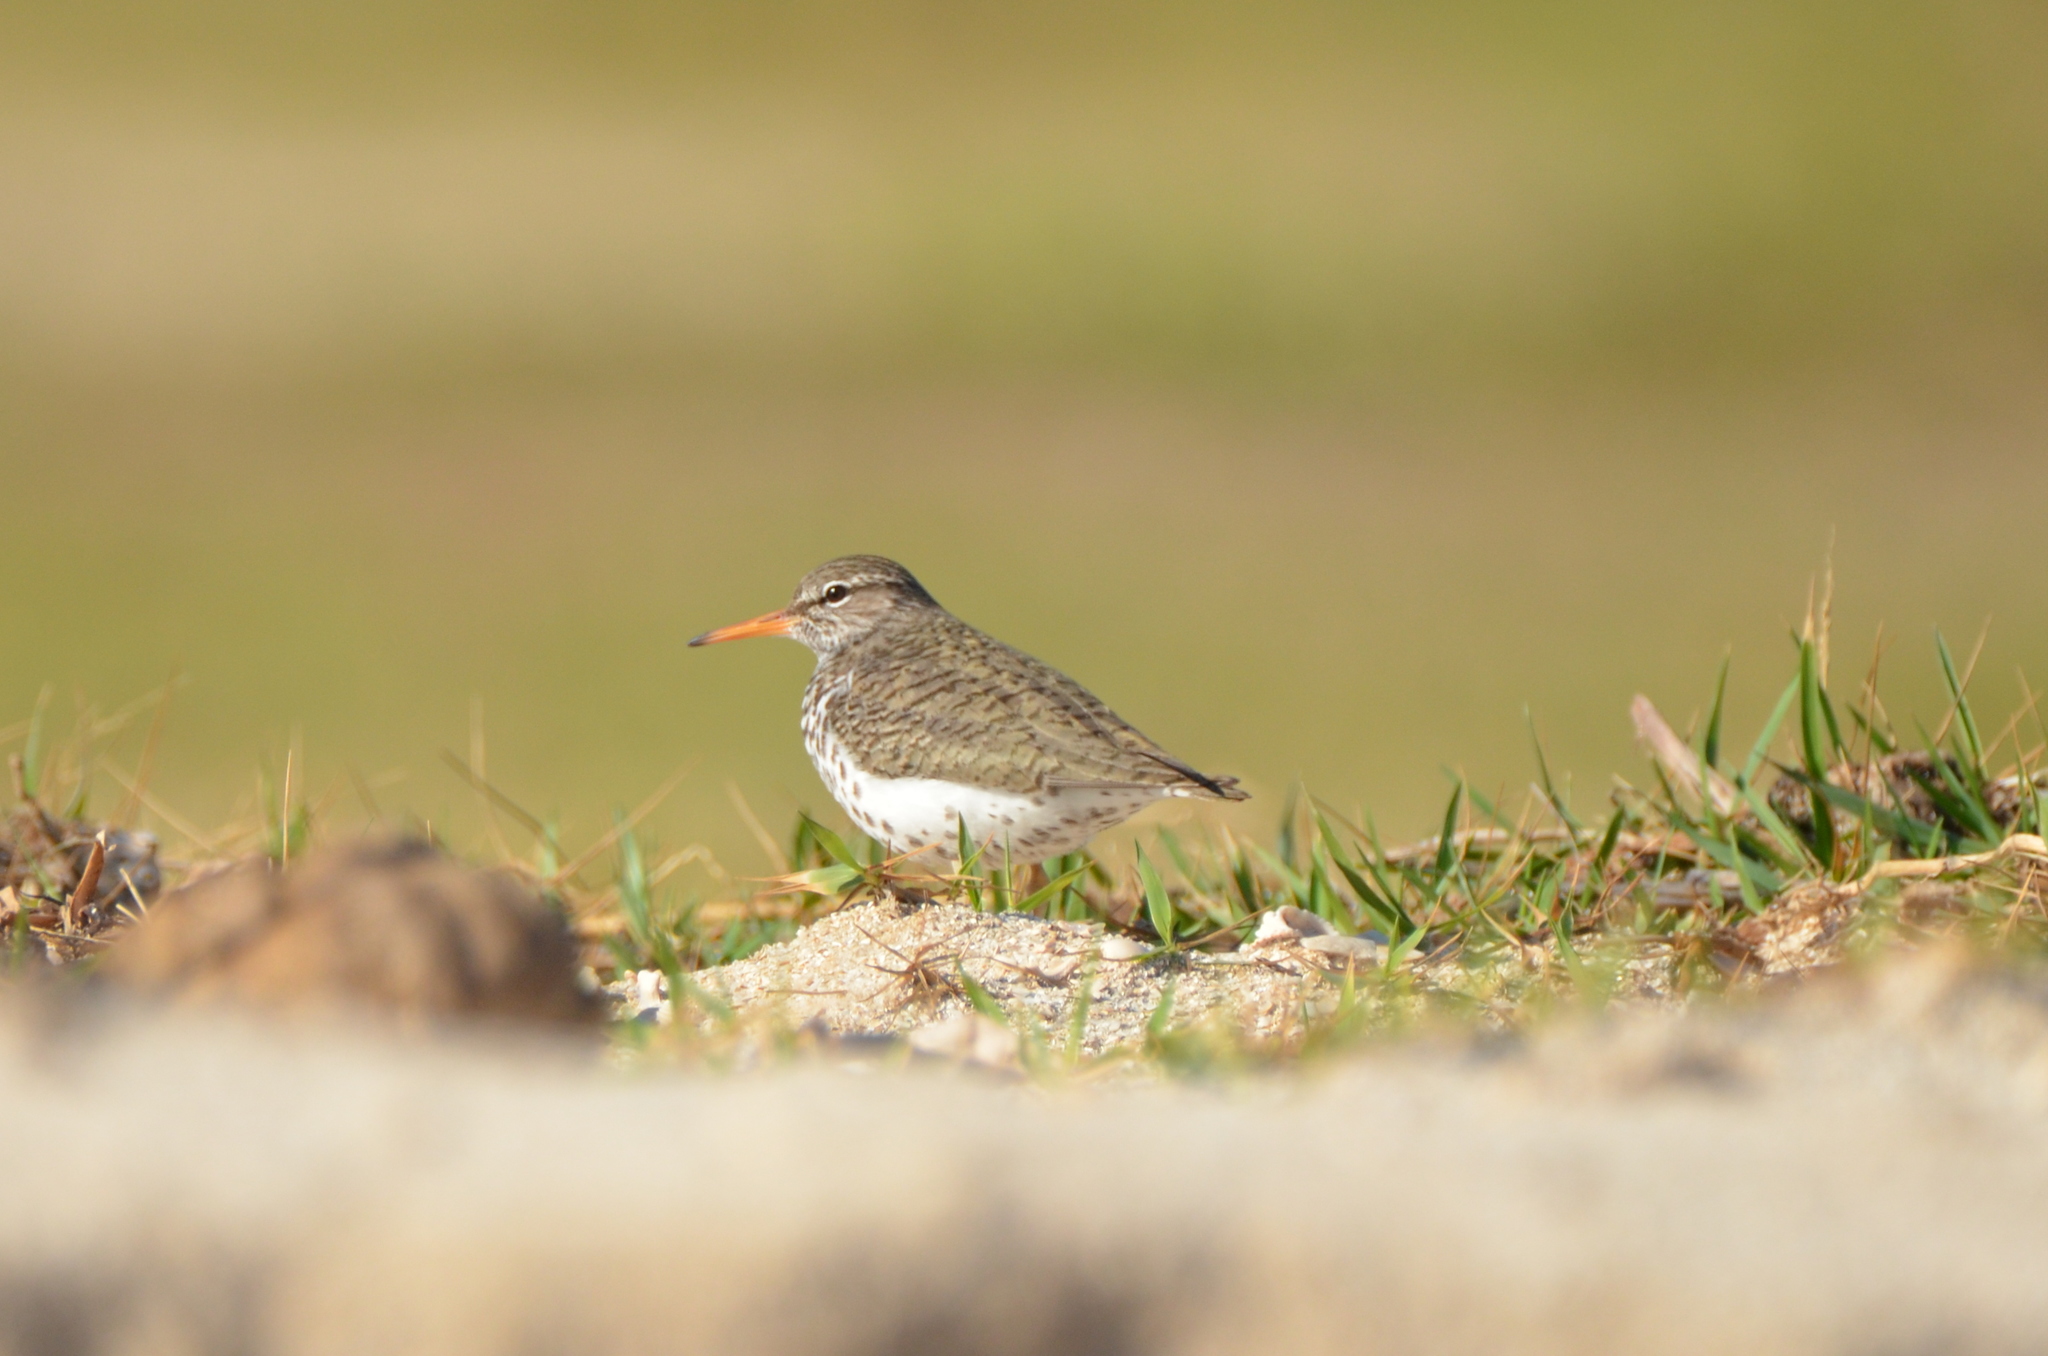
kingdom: Animalia
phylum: Chordata
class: Aves
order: Charadriiformes
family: Scolopacidae
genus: Actitis
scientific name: Actitis macularius
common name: Spotted sandpiper
